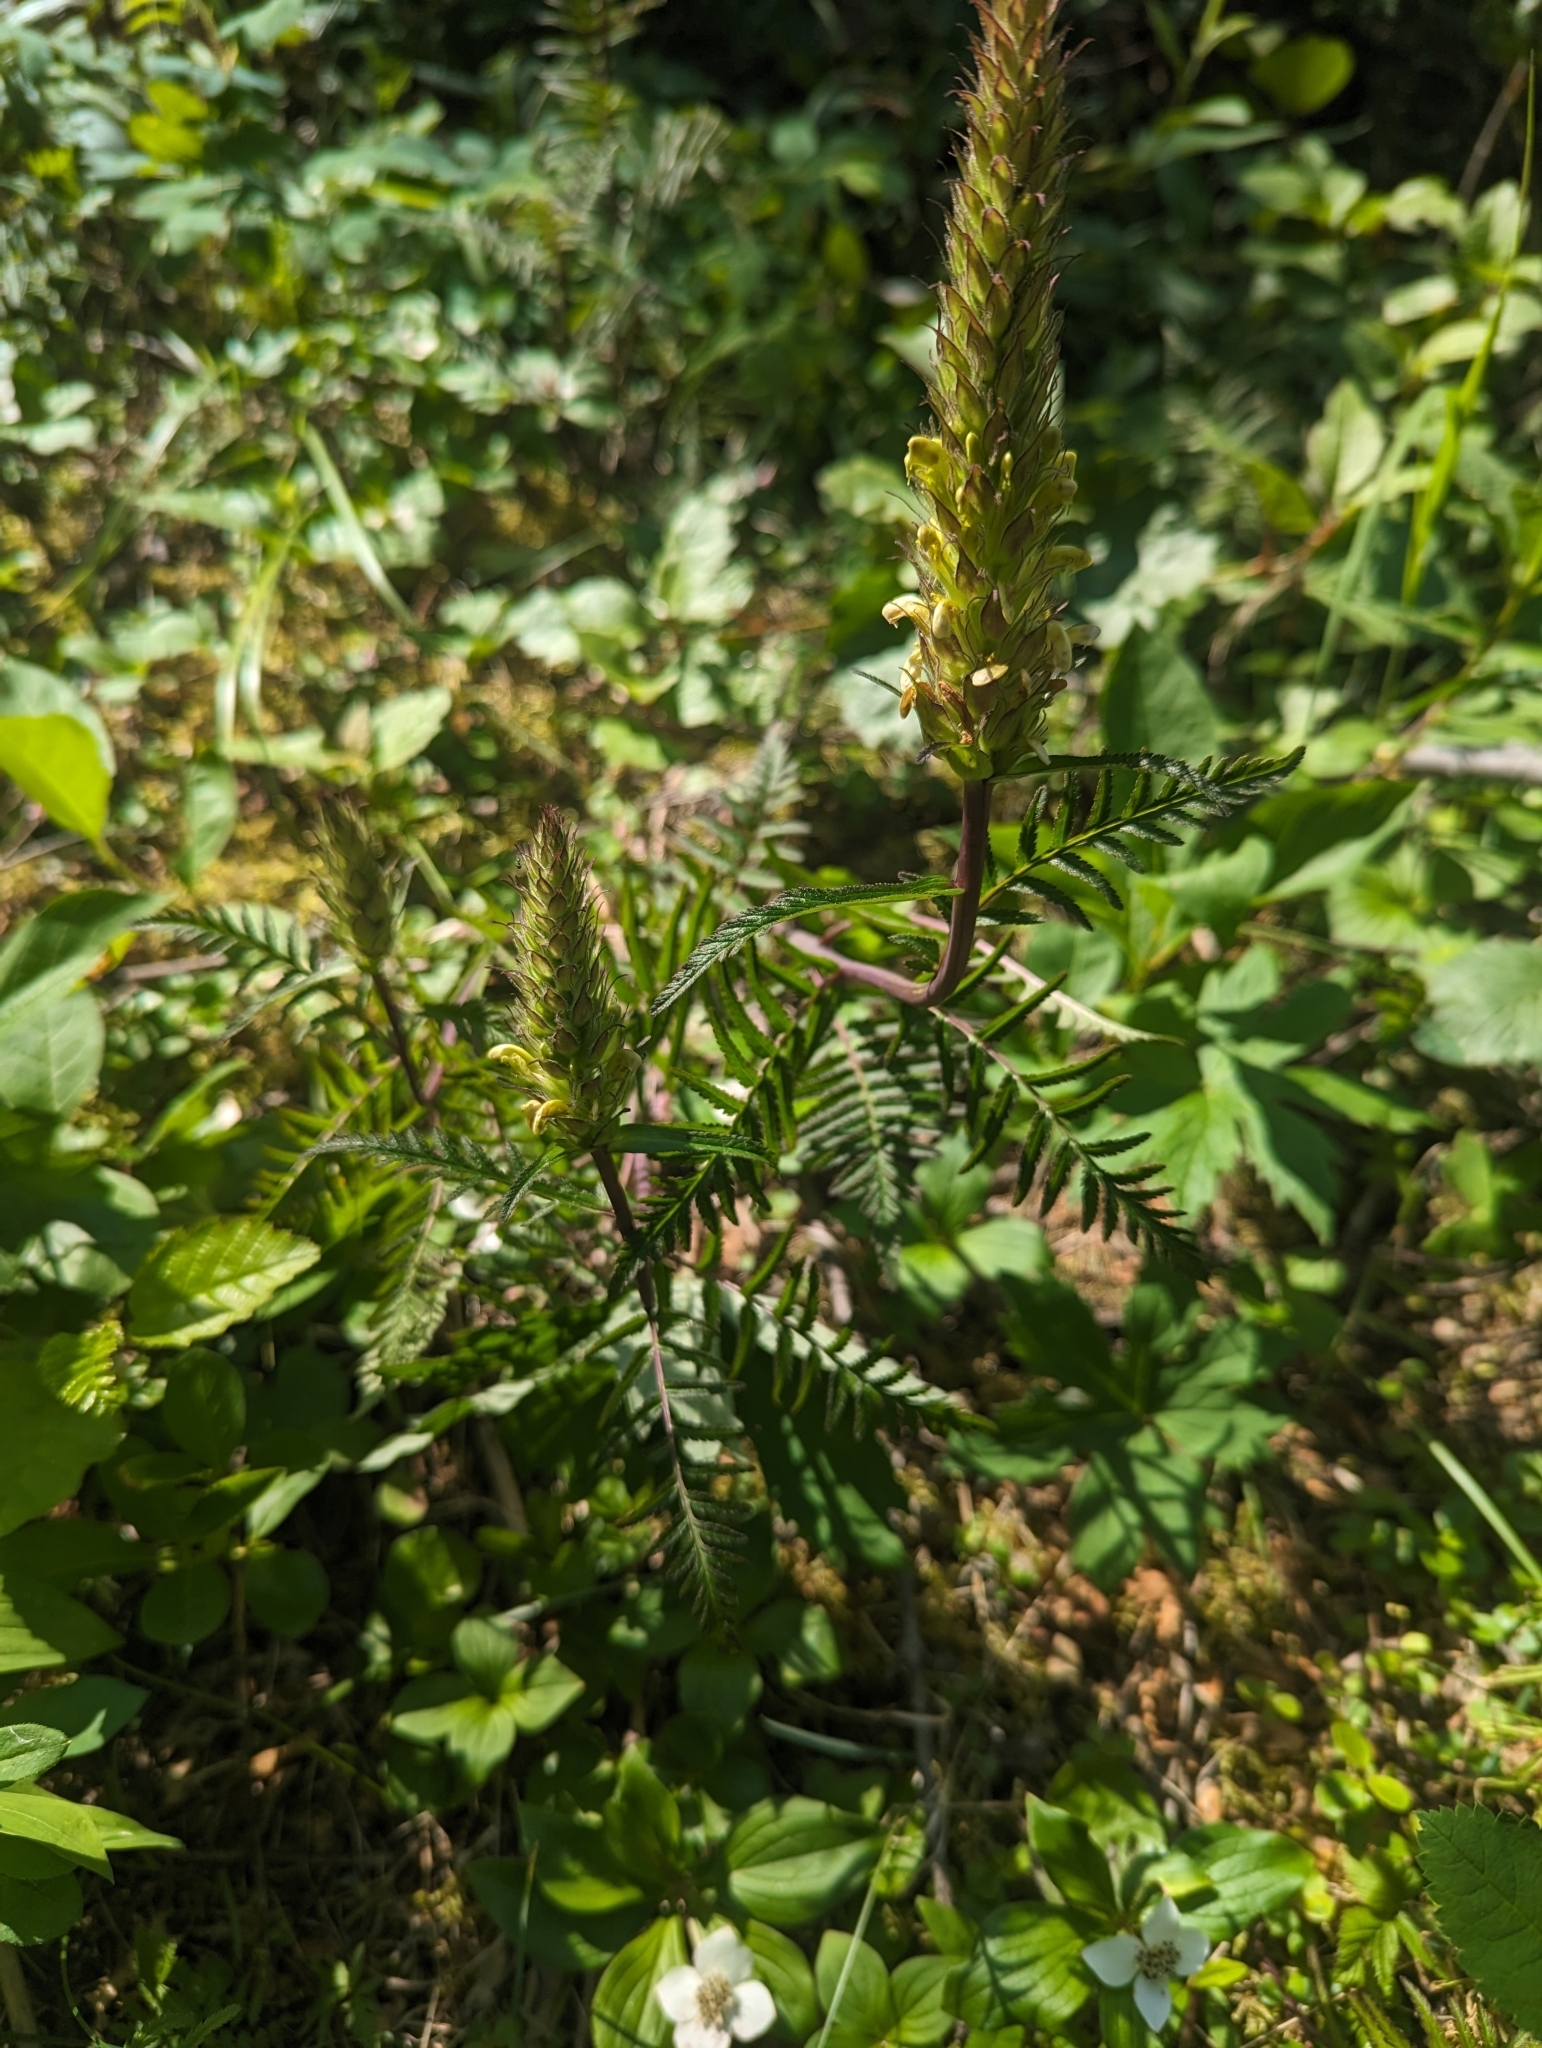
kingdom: Plantae
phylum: Tracheophyta
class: Magnoliopsida
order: Lamiales
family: Orobanchaceae
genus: Pedicularis
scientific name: Pedicularis bracteosa
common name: Bracted lousewort
